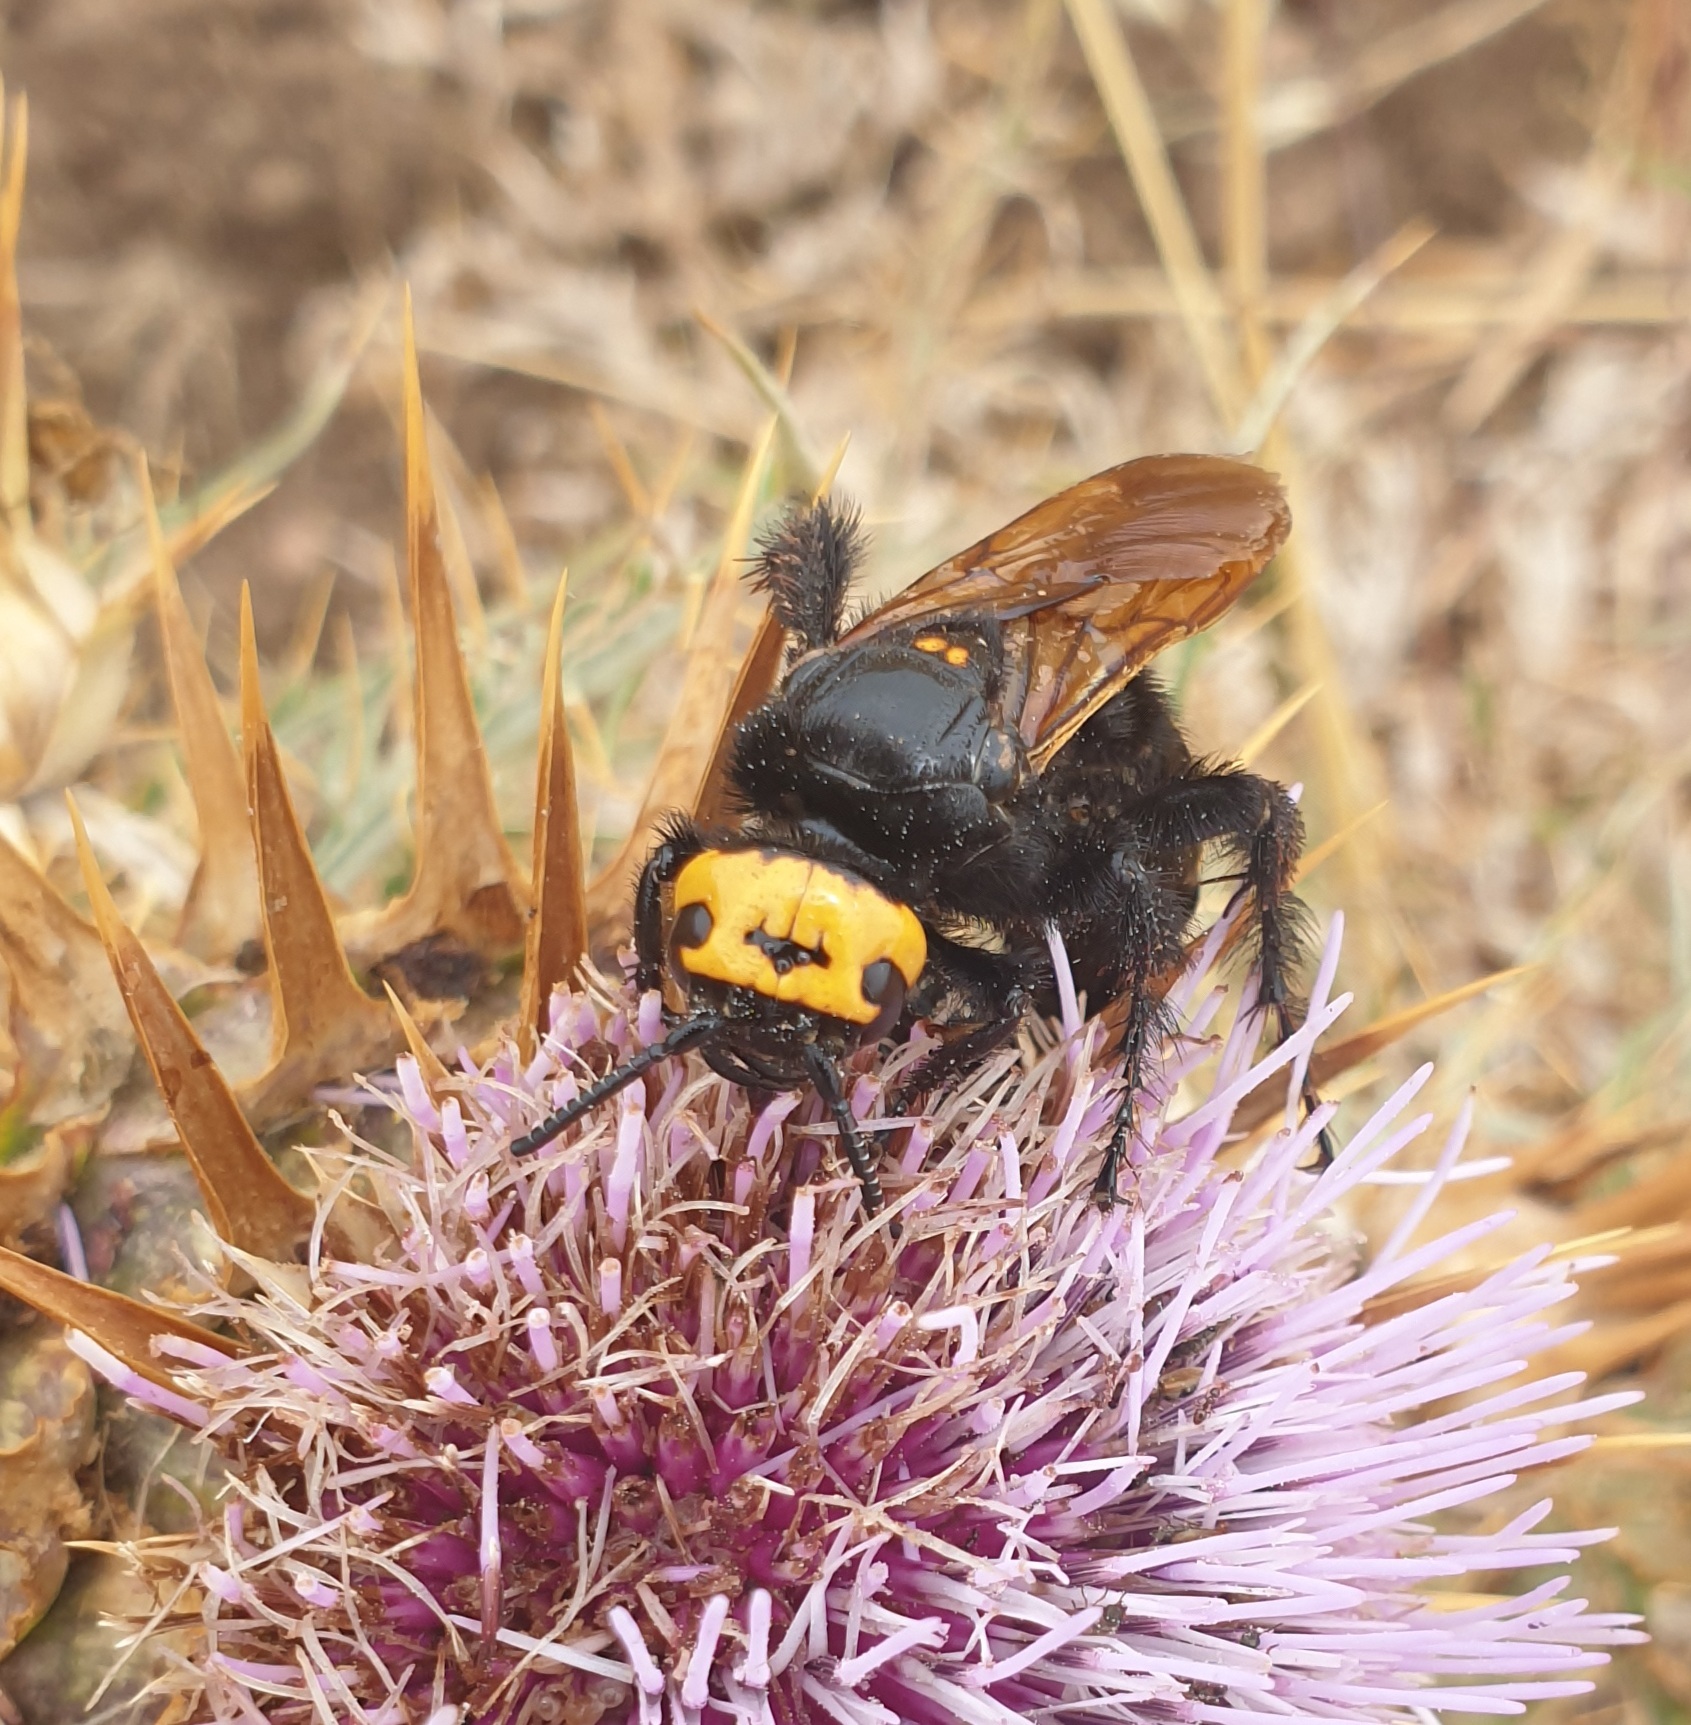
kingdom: Animalia
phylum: Arthropoda
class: Insecta
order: Hymenoptera
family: Scoliidae
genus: Megascolia
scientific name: Megascolia maculata
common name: Mammoth wasp
